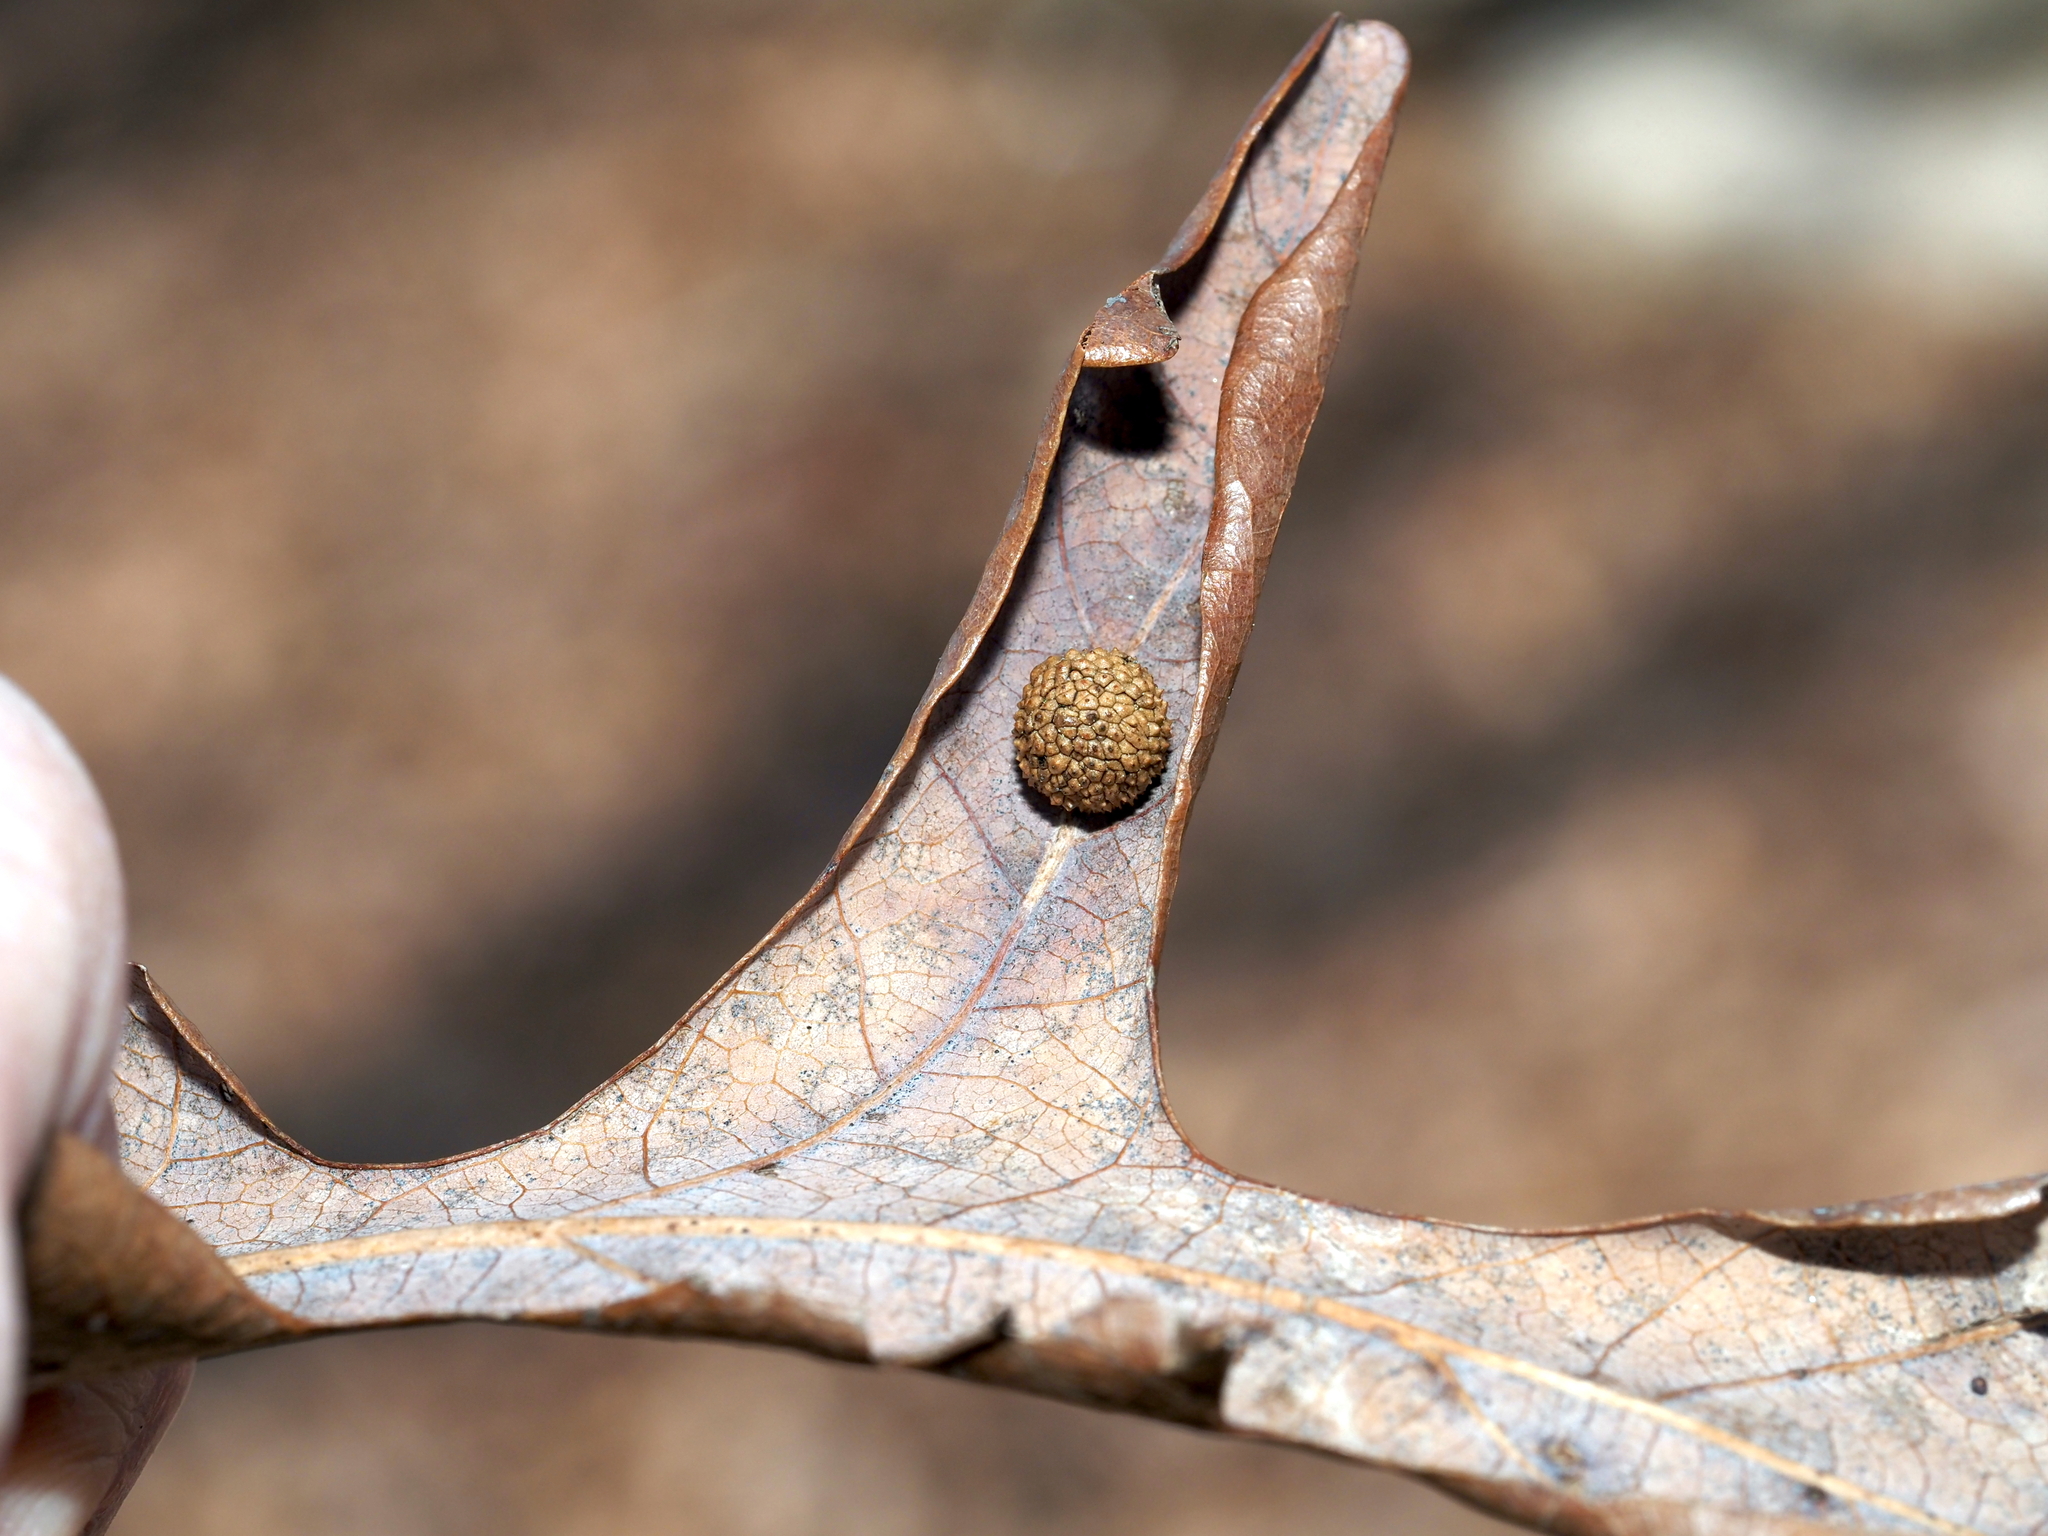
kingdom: Animalia
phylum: Arthropoda
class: Insecta
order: Hymenoptera
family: Cynipidae
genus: Acraspis
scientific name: Acraspis
